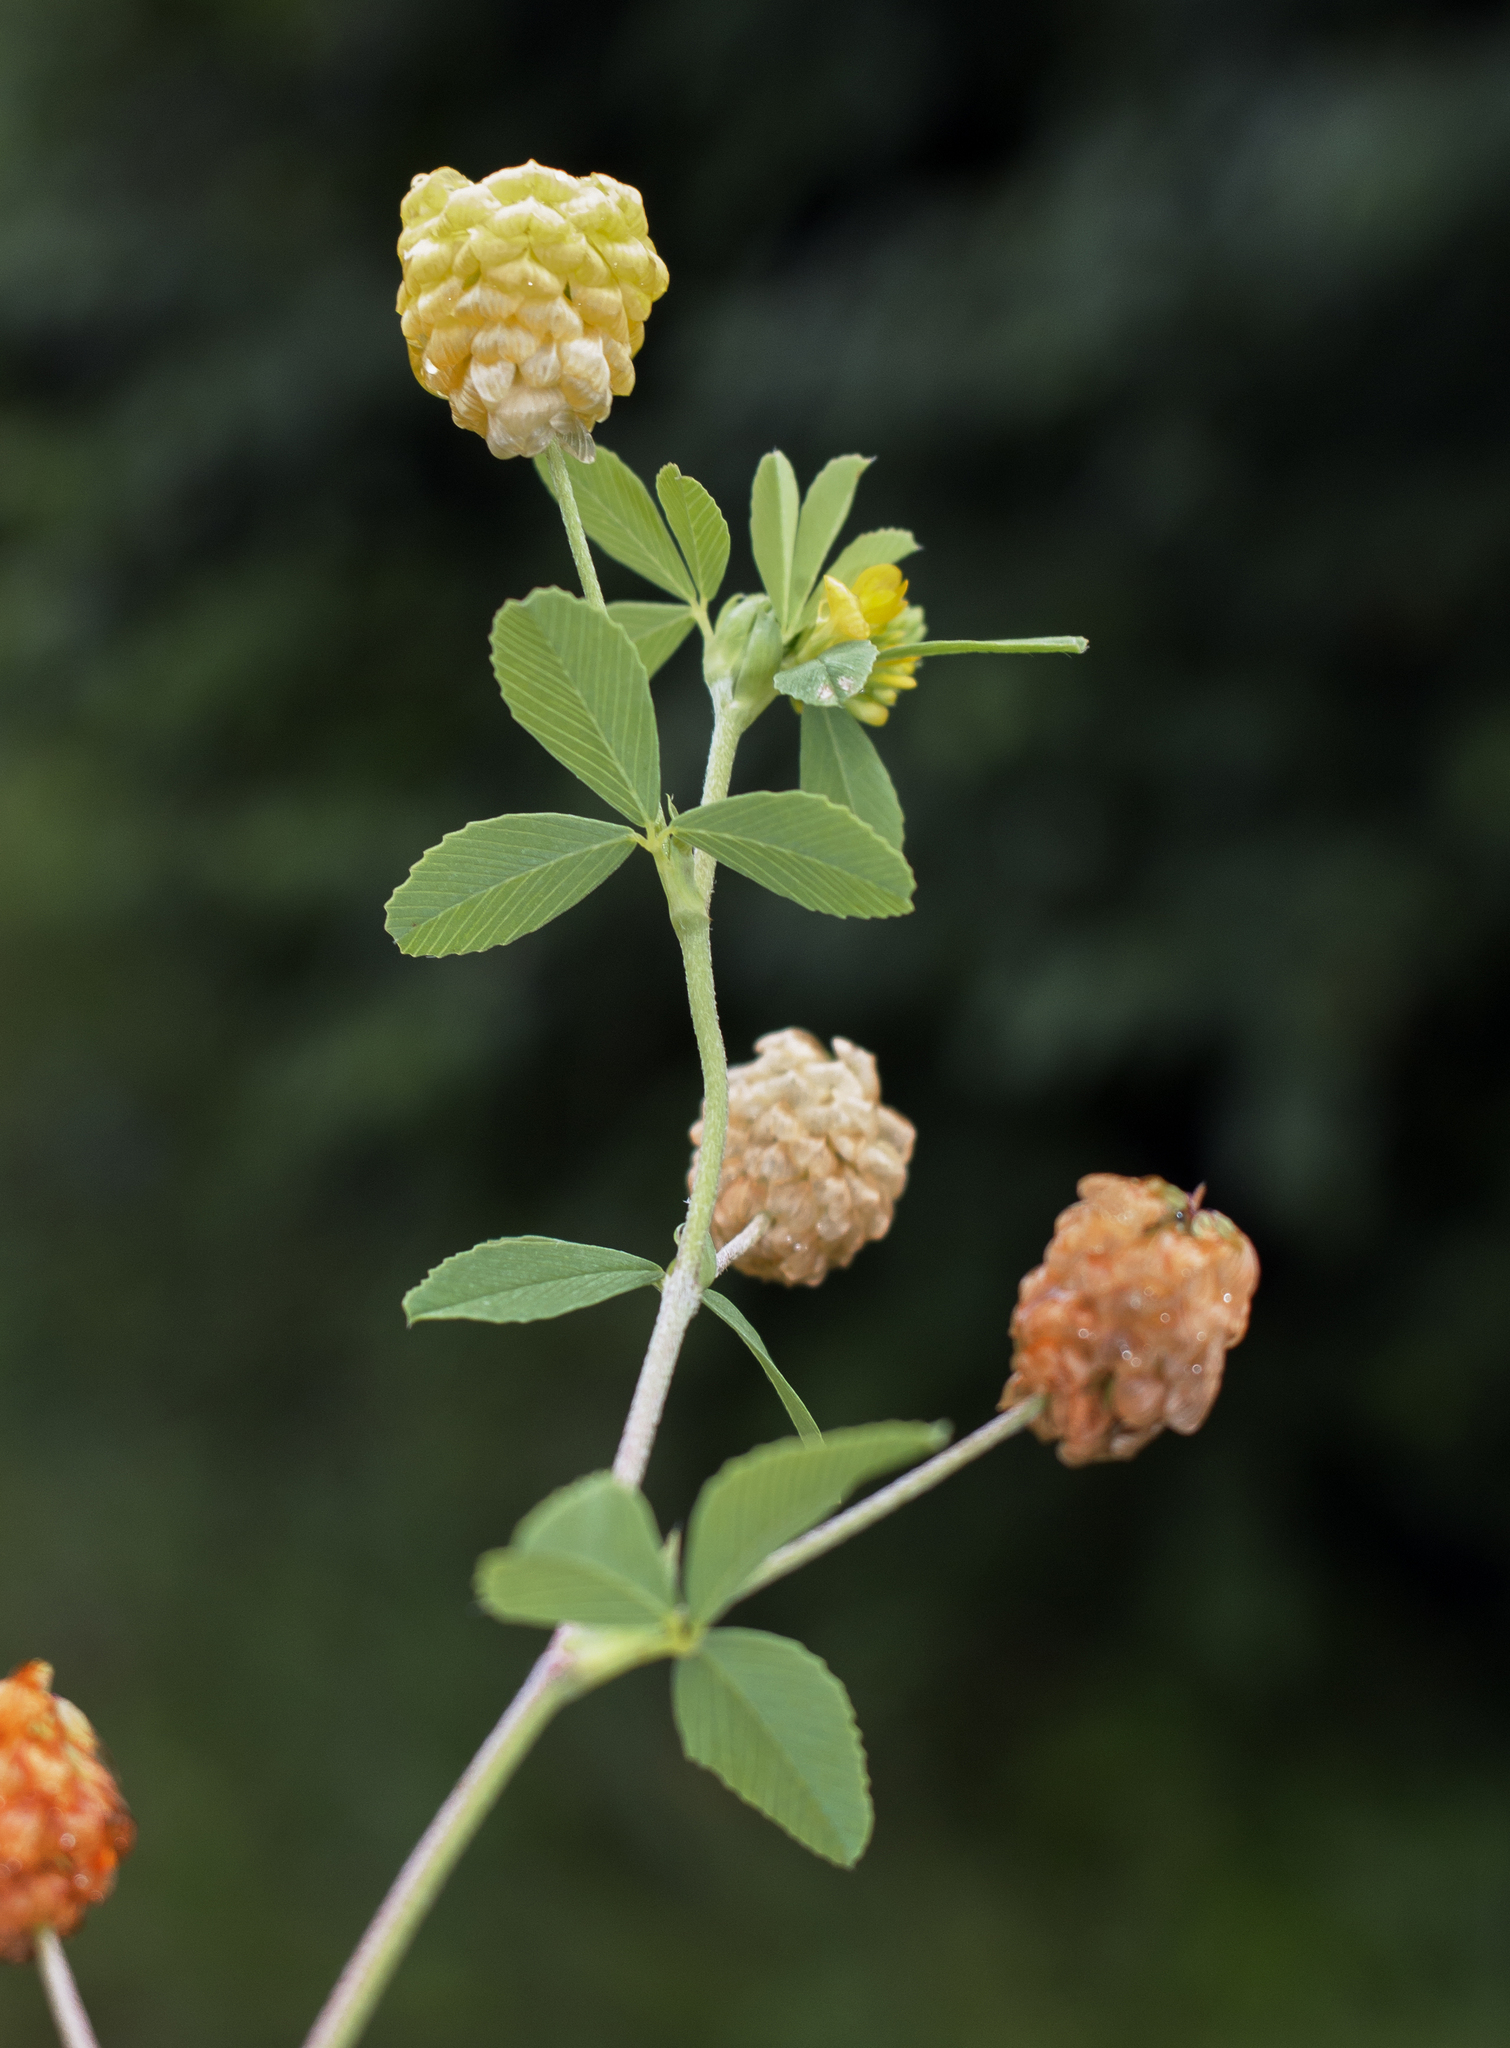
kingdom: Plantae
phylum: Tracheophyta
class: Magnoliopsida
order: Fabales
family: Fabaceae
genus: Trifolium
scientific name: Trifolium aureum
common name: Golden clover
